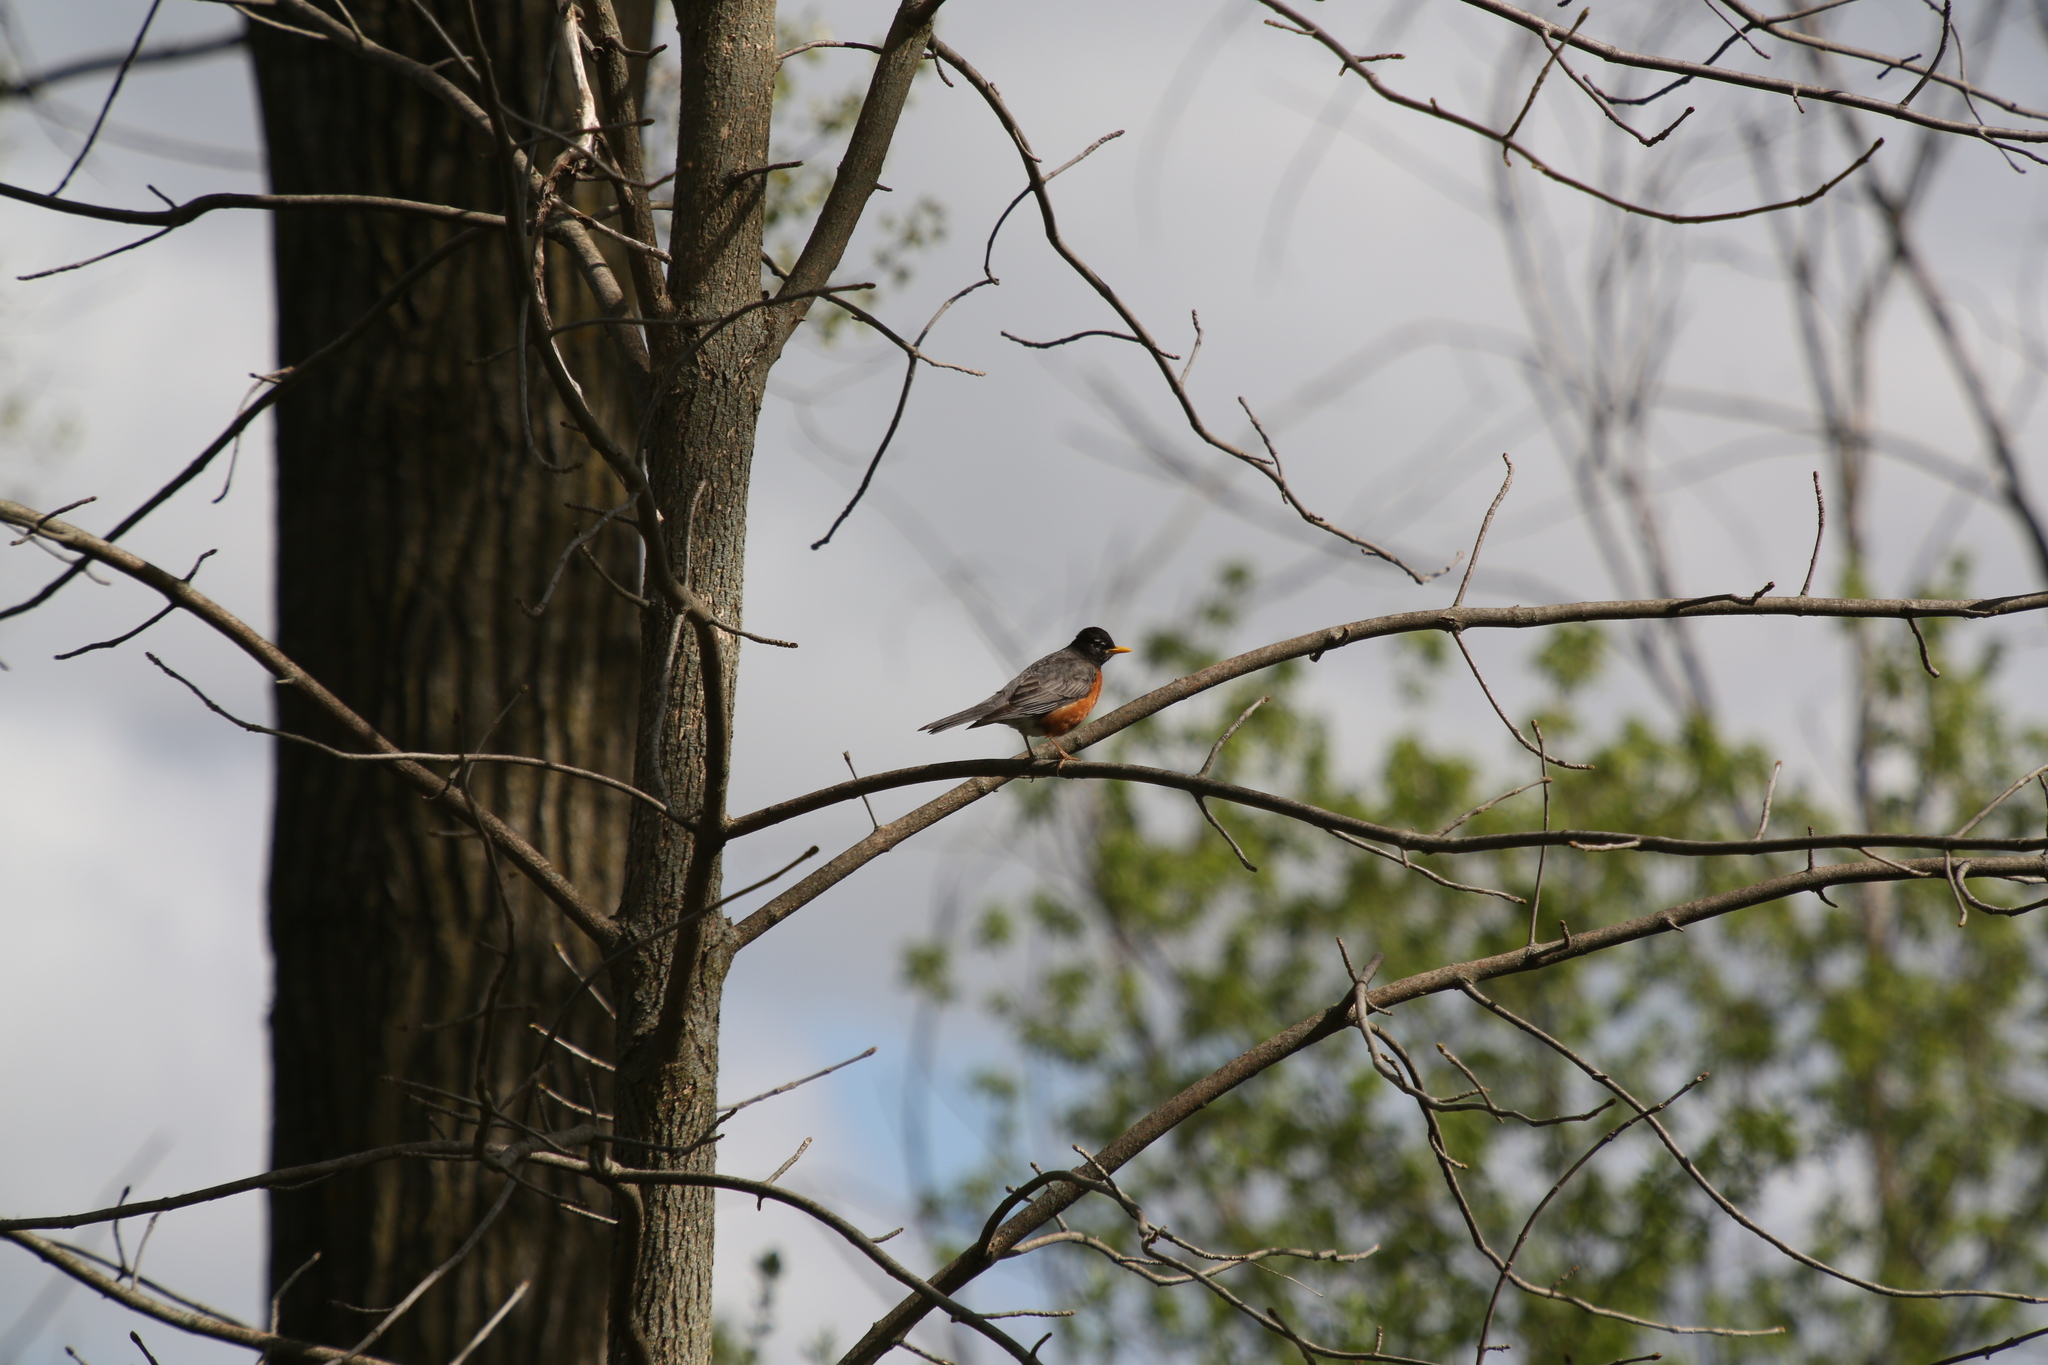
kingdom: Animalia
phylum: Chordata
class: Aves
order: Passeriformes
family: Turdidae
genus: Turdus
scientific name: Turdus migratorius
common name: American robin
